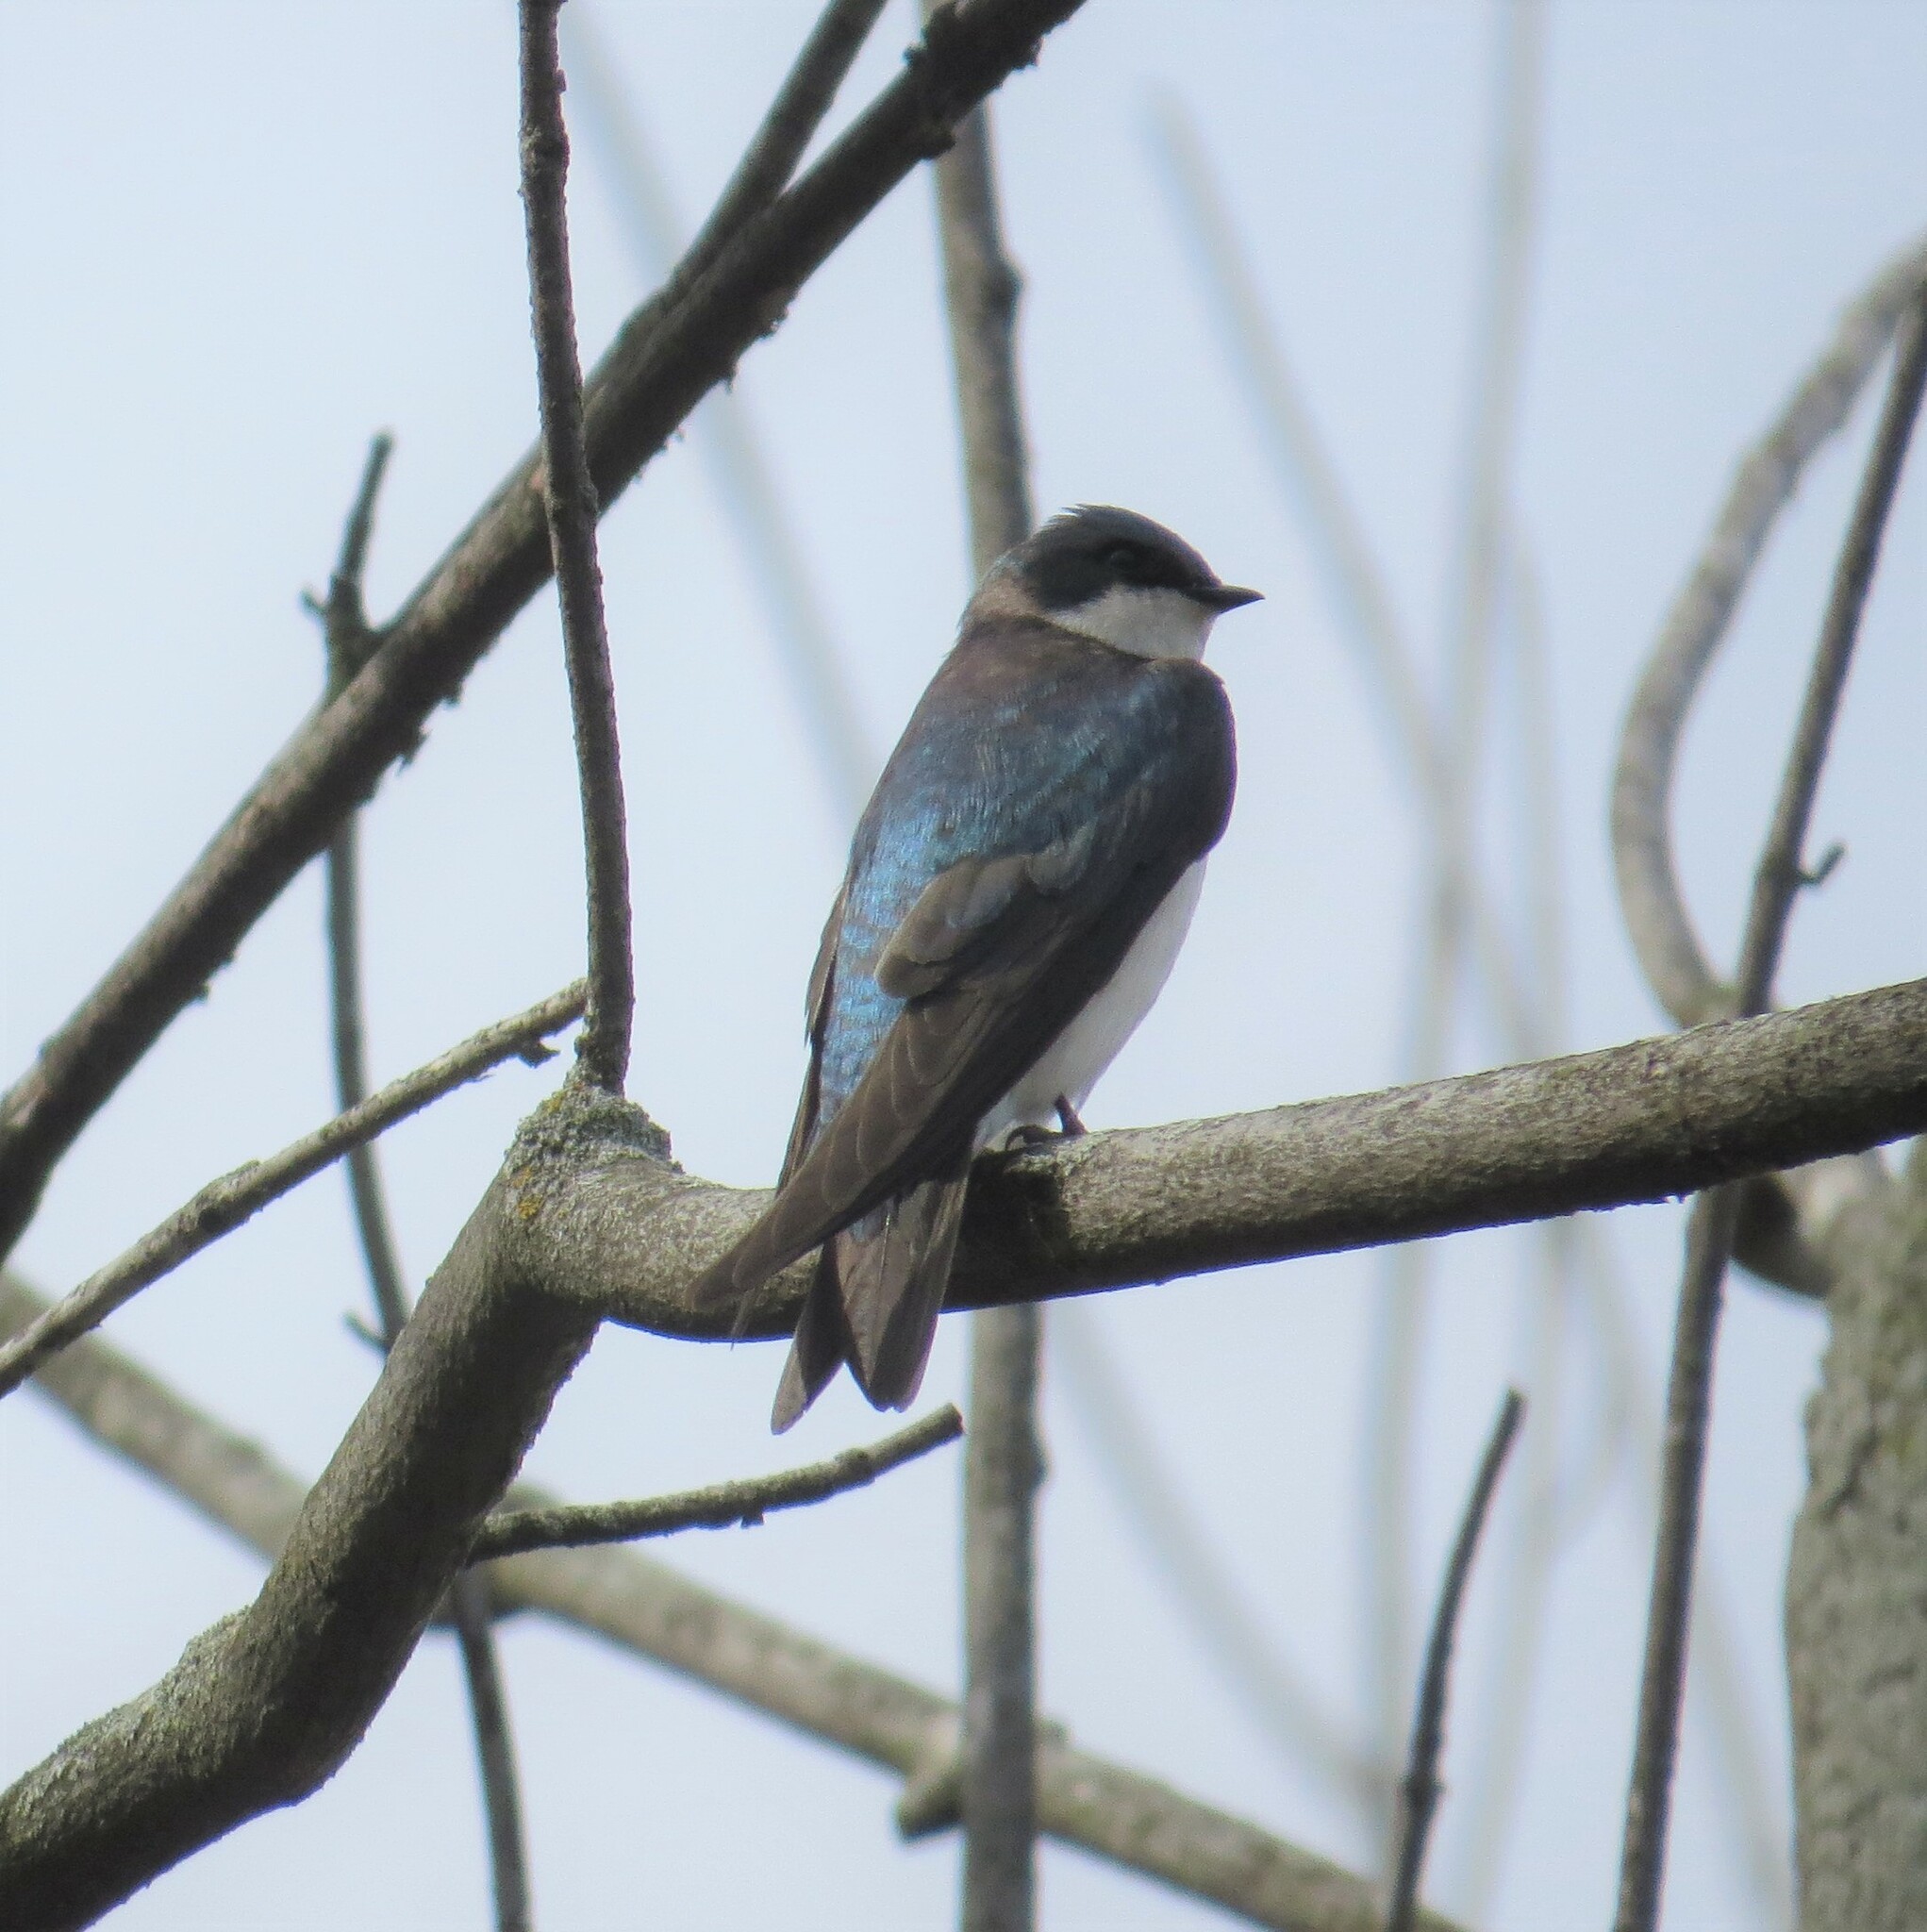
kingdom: Animalia
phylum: Chordata
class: Aves
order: Passeriformes
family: Hirundinidae
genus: Tachycineta
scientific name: Tachycineta bicolor
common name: Tree swallow
